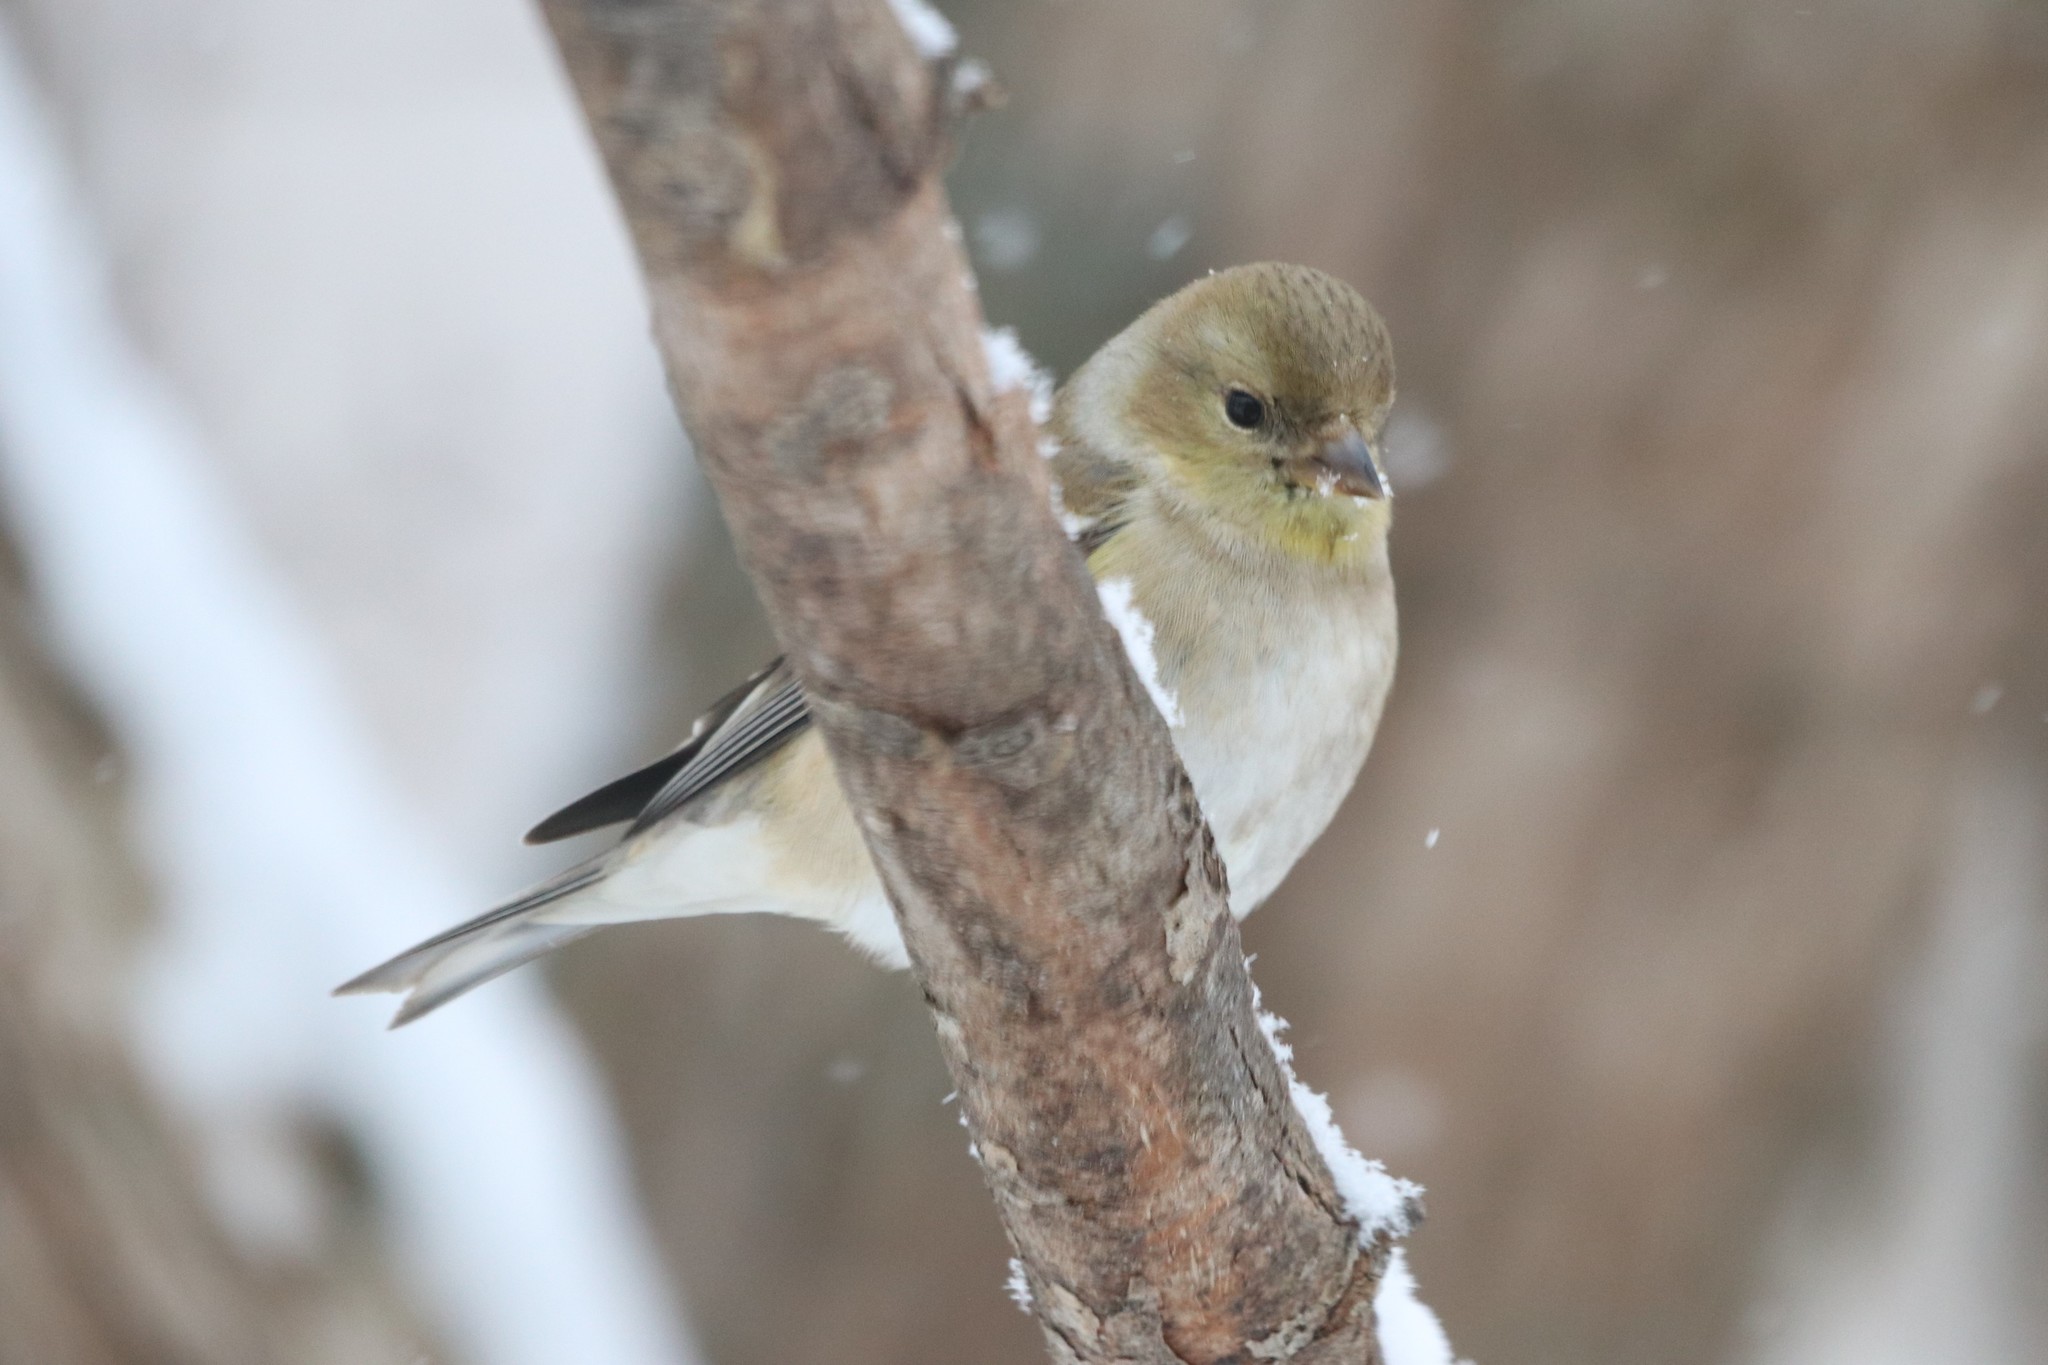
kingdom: Animalia
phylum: Chordata
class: Aves
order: Passeriformes
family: Fringillidae
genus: Spinus
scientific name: Spinus tristis
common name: American goldfinch
